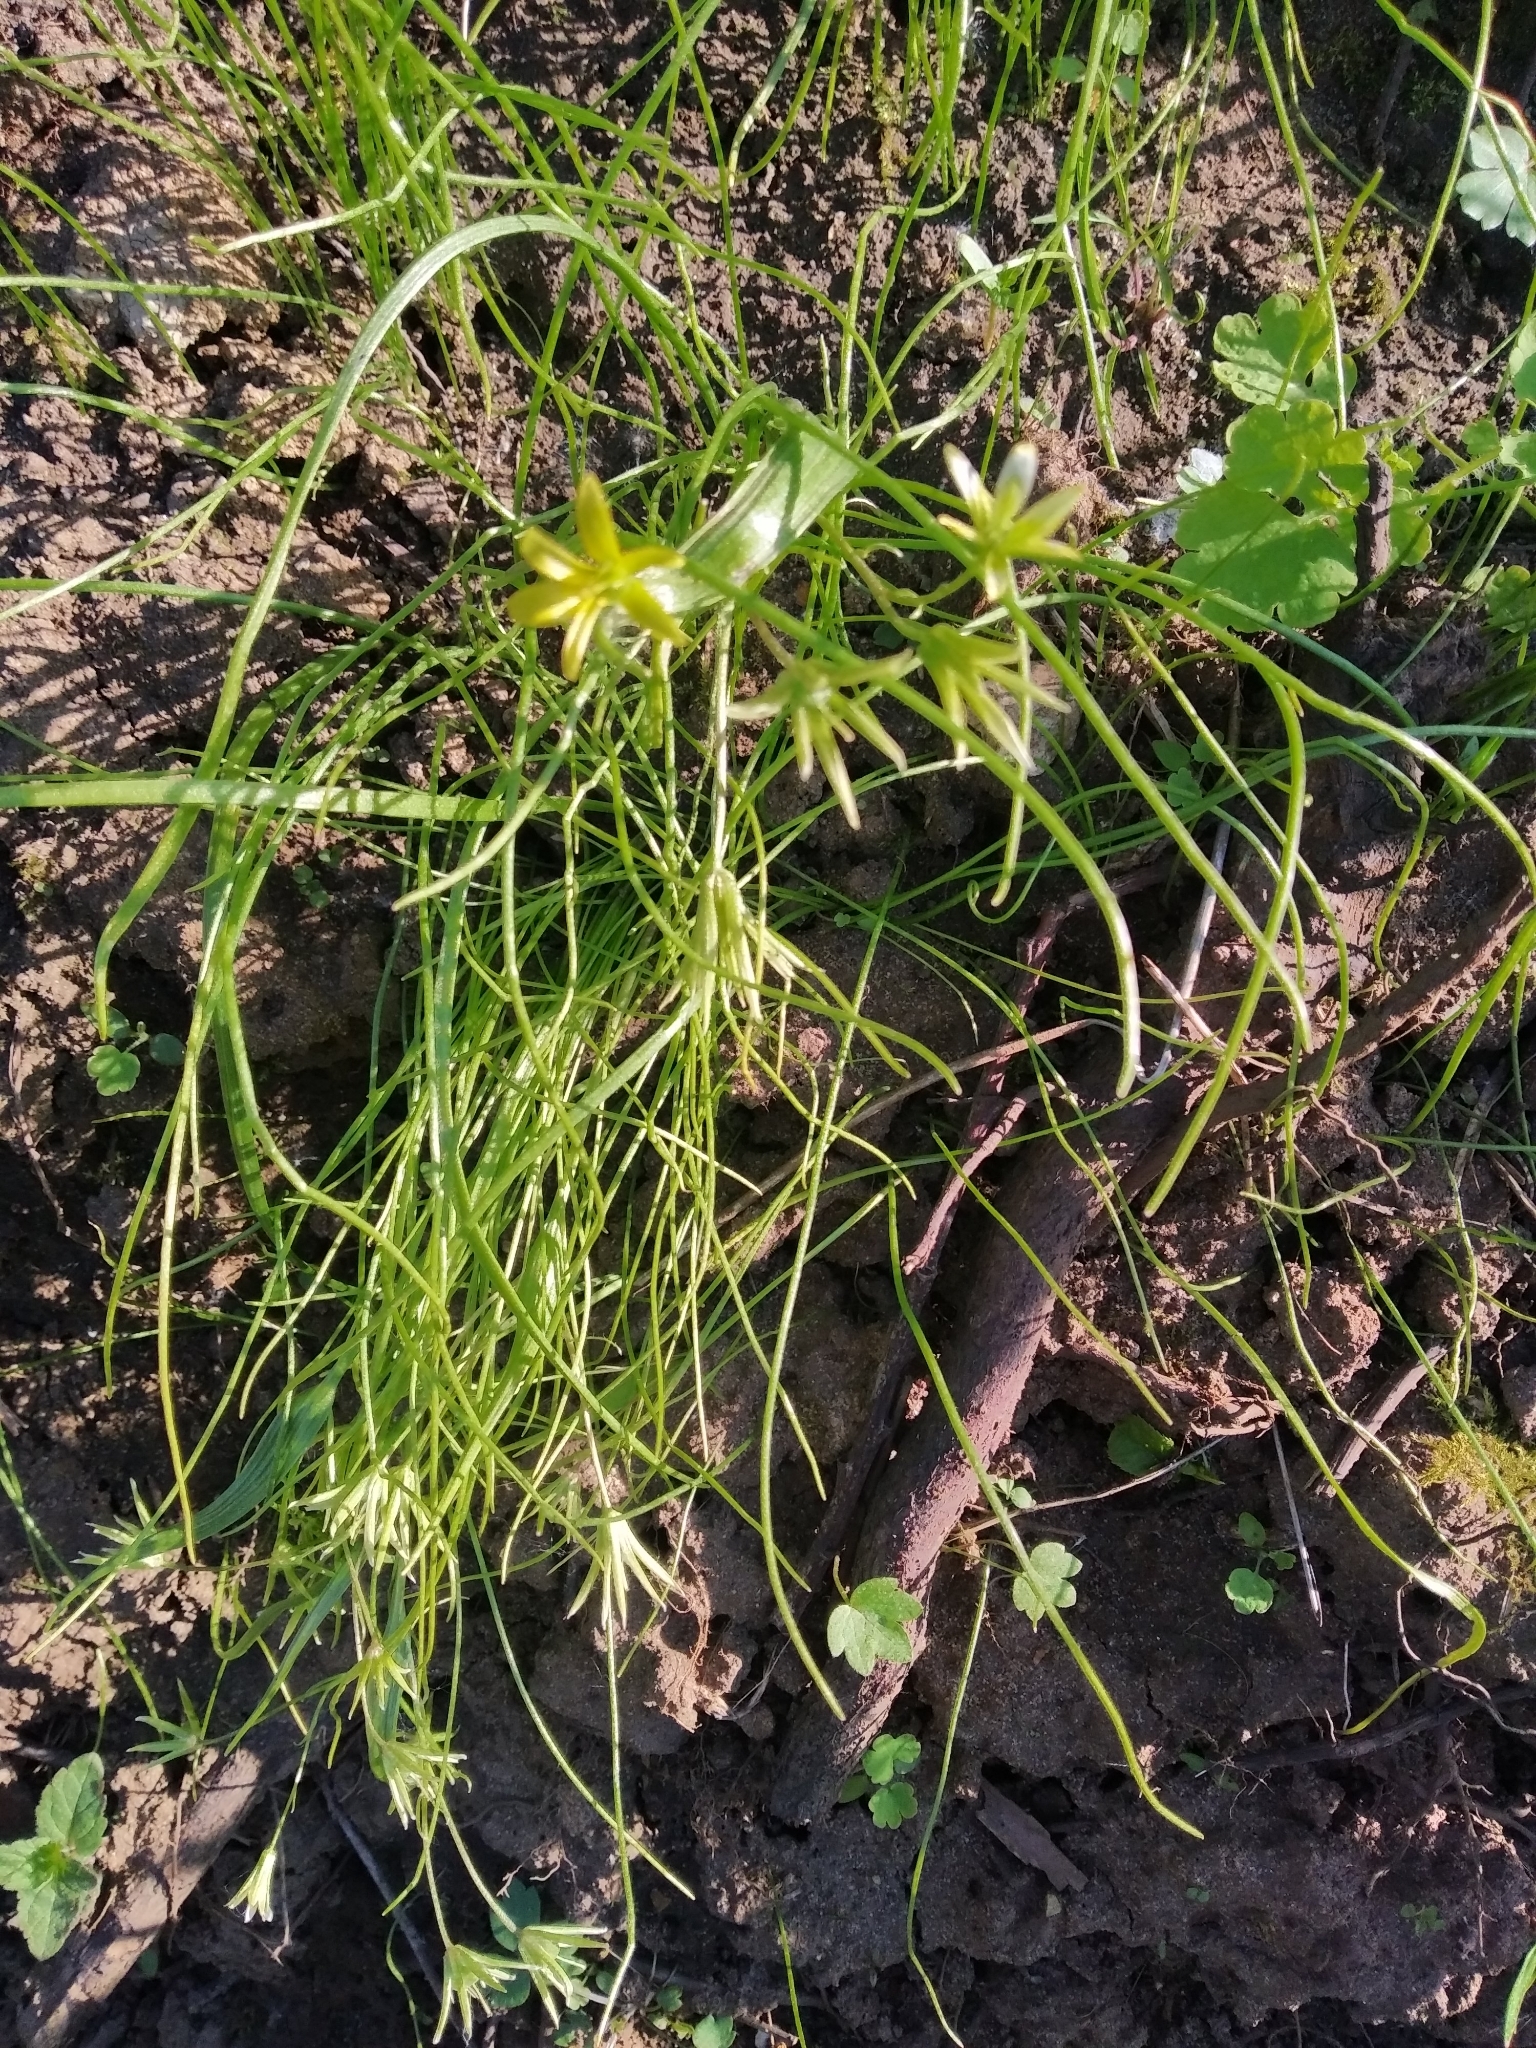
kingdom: Plantae
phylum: Tracheophyta
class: Liliopsida
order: Liliales
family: Liliaceae
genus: Gagea
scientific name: Gagea minima
